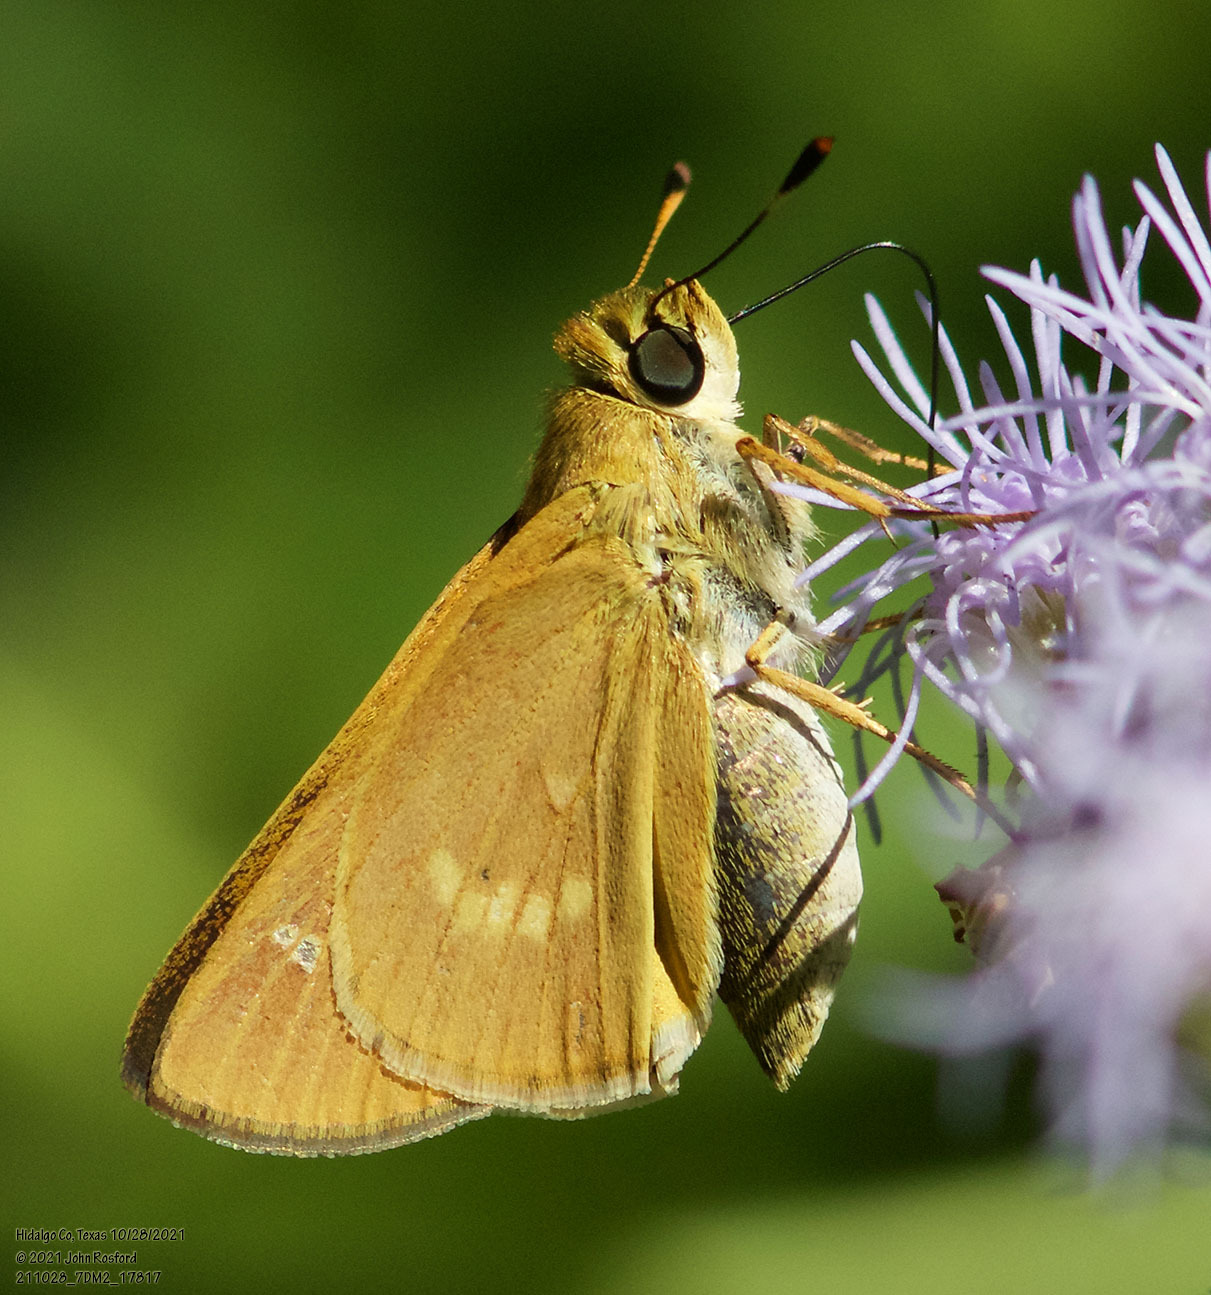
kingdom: Animalia
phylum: Arthropoda
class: Insecta
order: Lepidoptera
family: Hesperiidae
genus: Mellana
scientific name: Mellana eulogius
